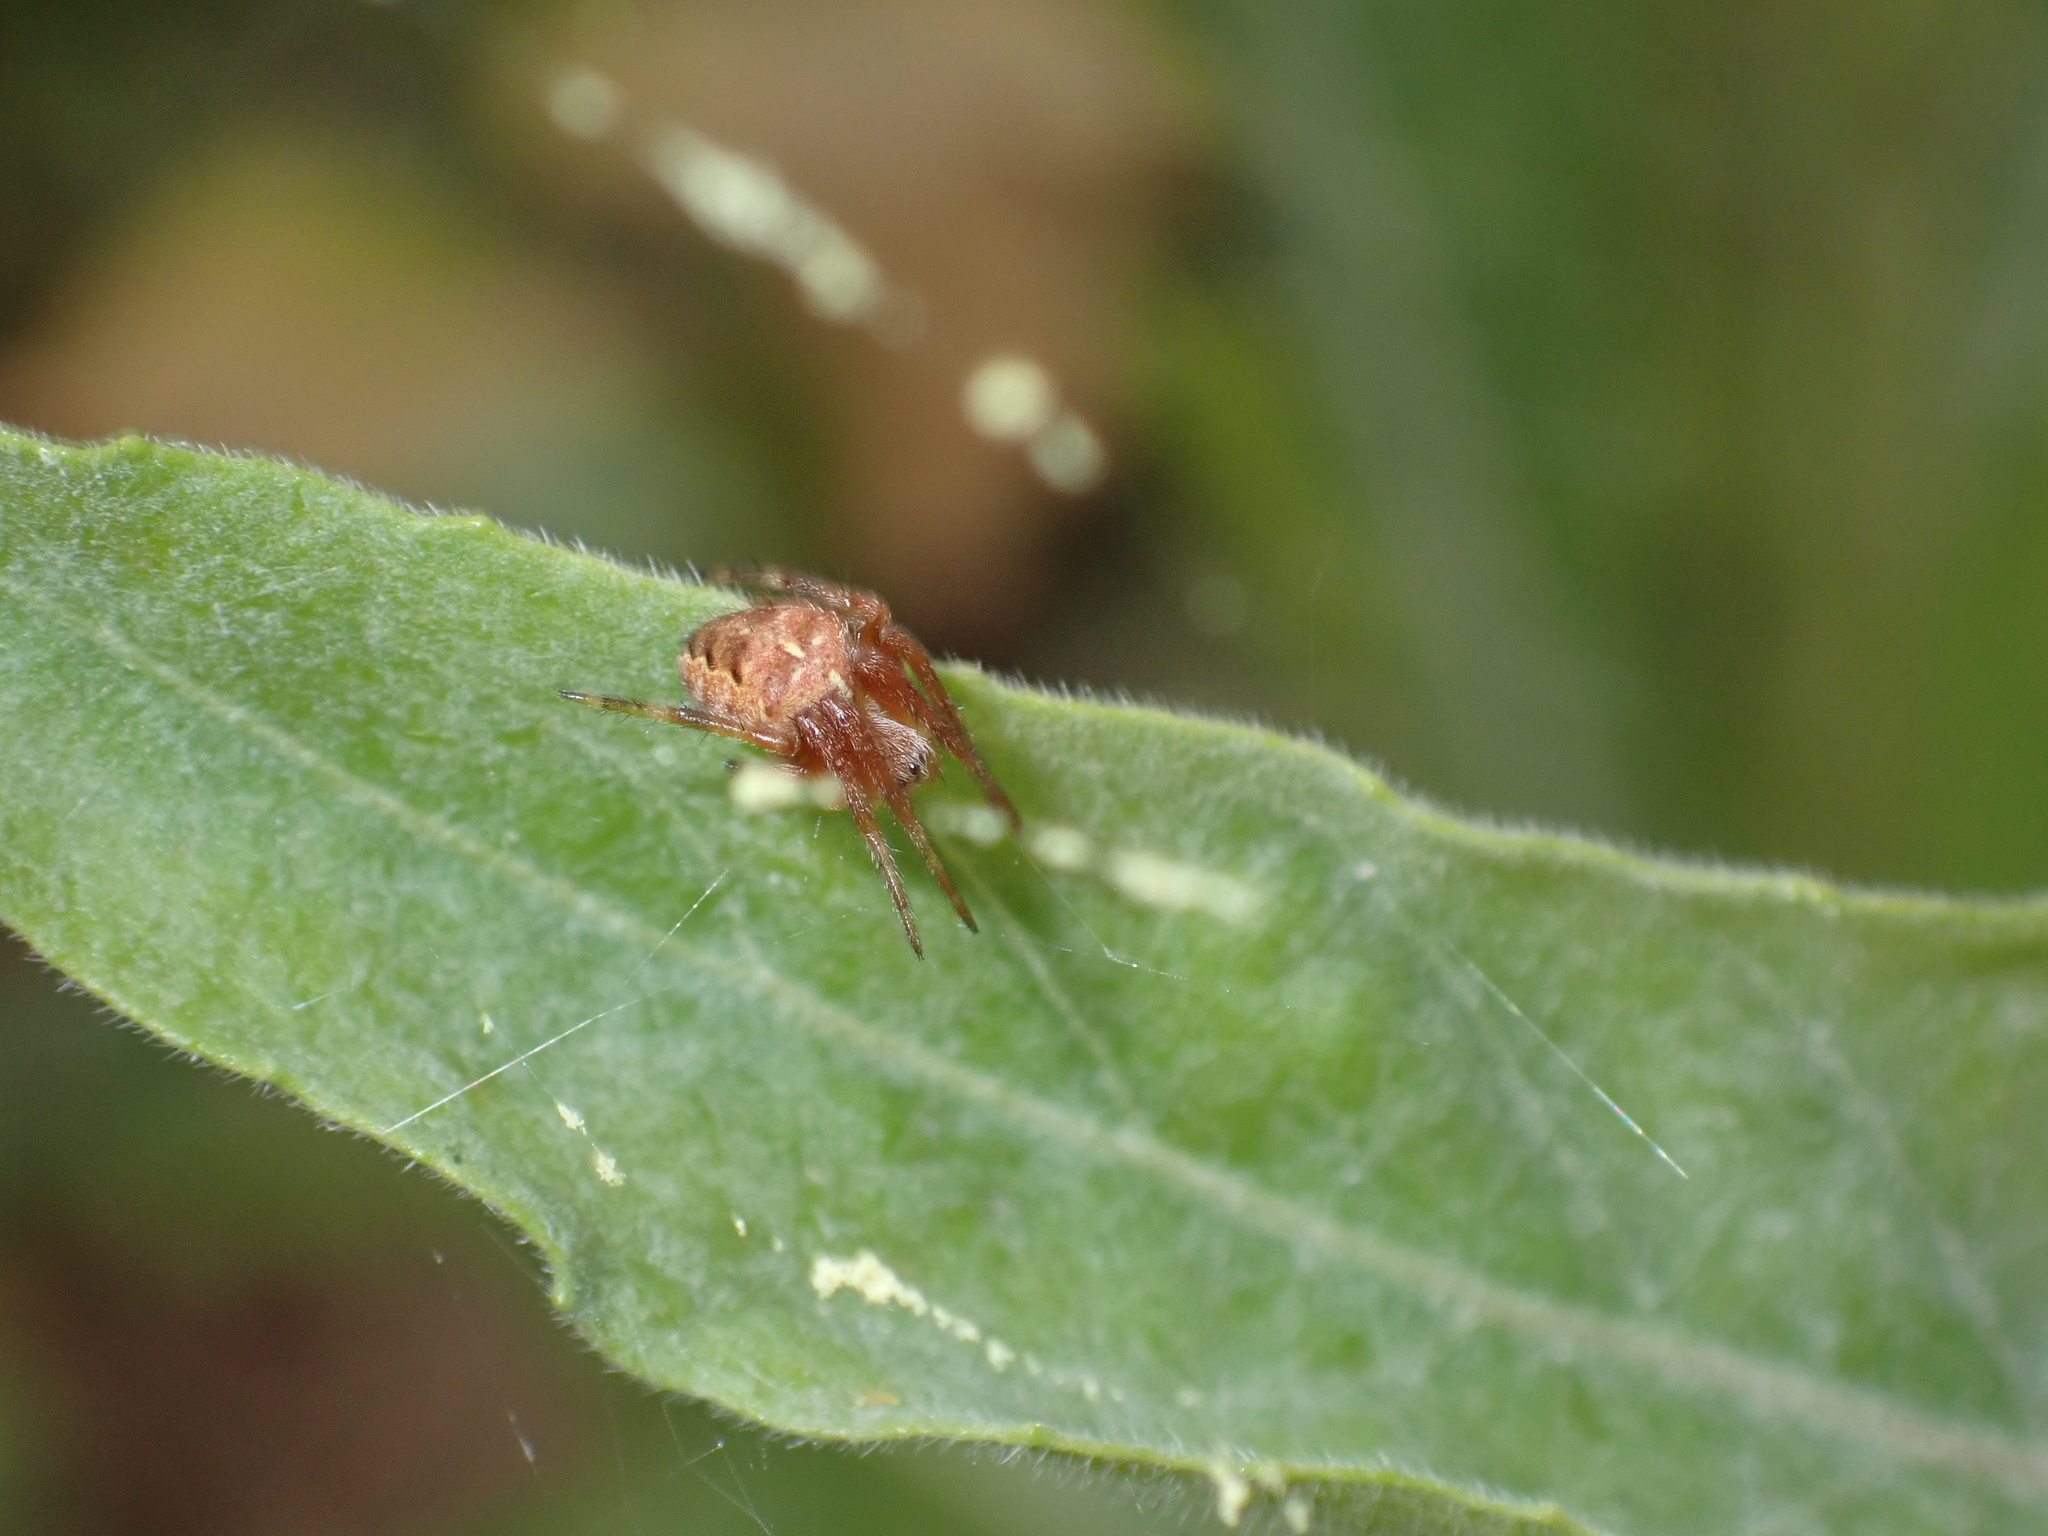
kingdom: Animalia
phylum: Arthropoda
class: Arachnida
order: Araneae
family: Araneidae
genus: Araneus
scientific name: Araneus diadematus
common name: Cross orbweaver
